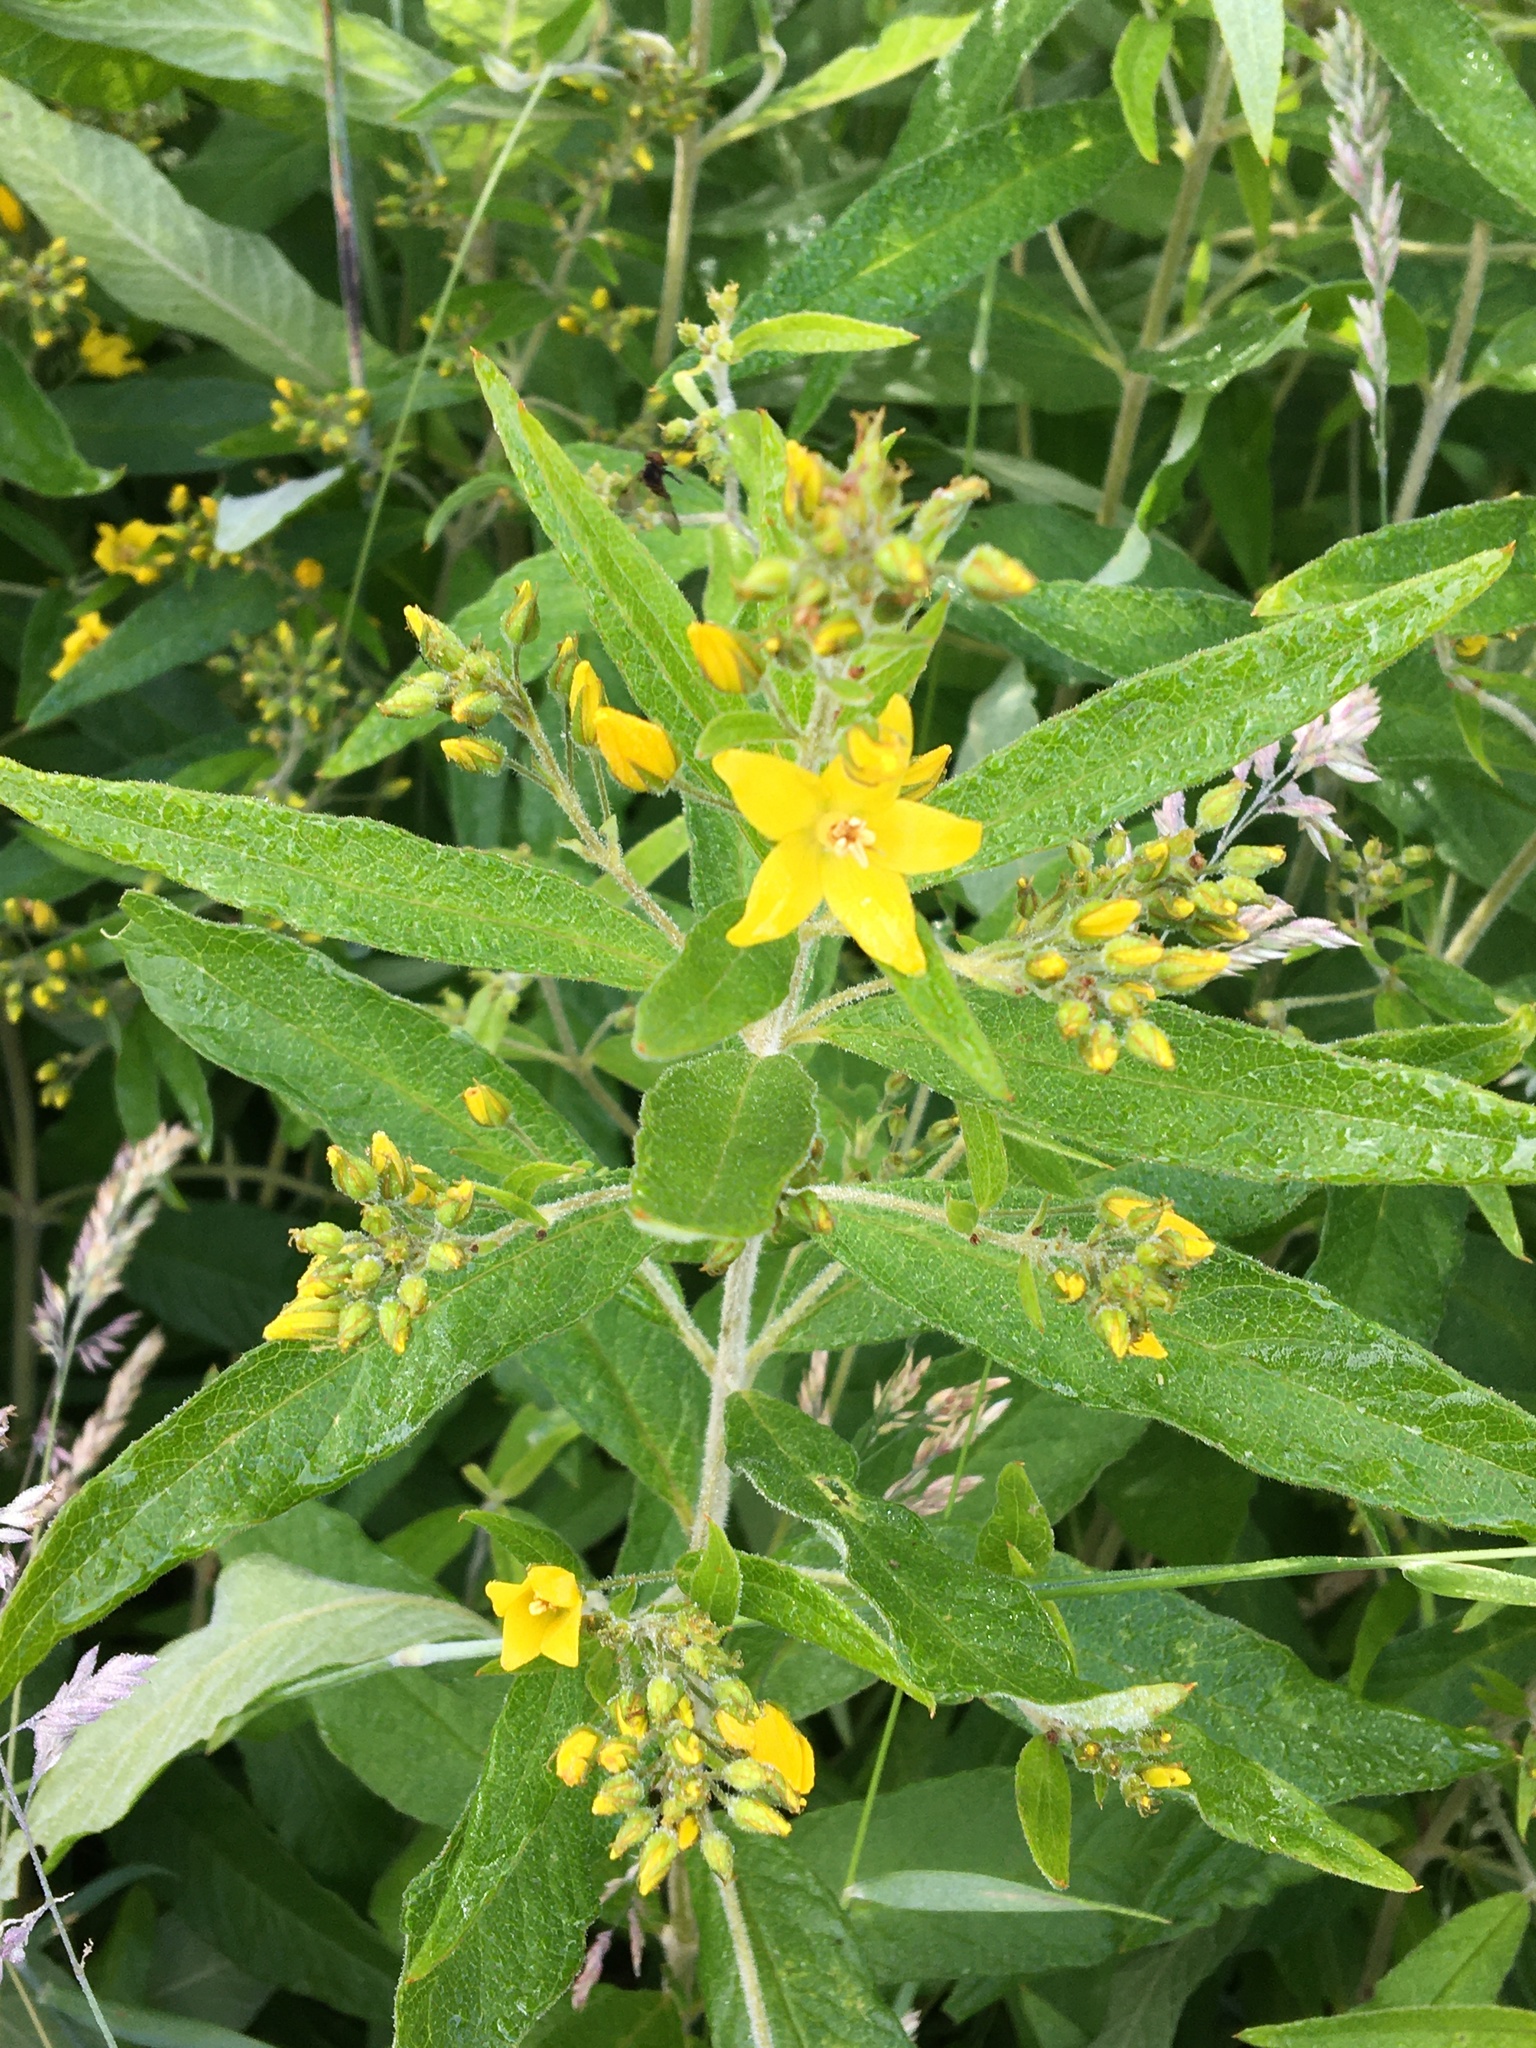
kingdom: Plantae
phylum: Tracheophyta
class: Magnoliopsida
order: Ericales
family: Primulaceae
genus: Lysimachia
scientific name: Lysimachia vulgaris
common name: Yellow loosestrife
